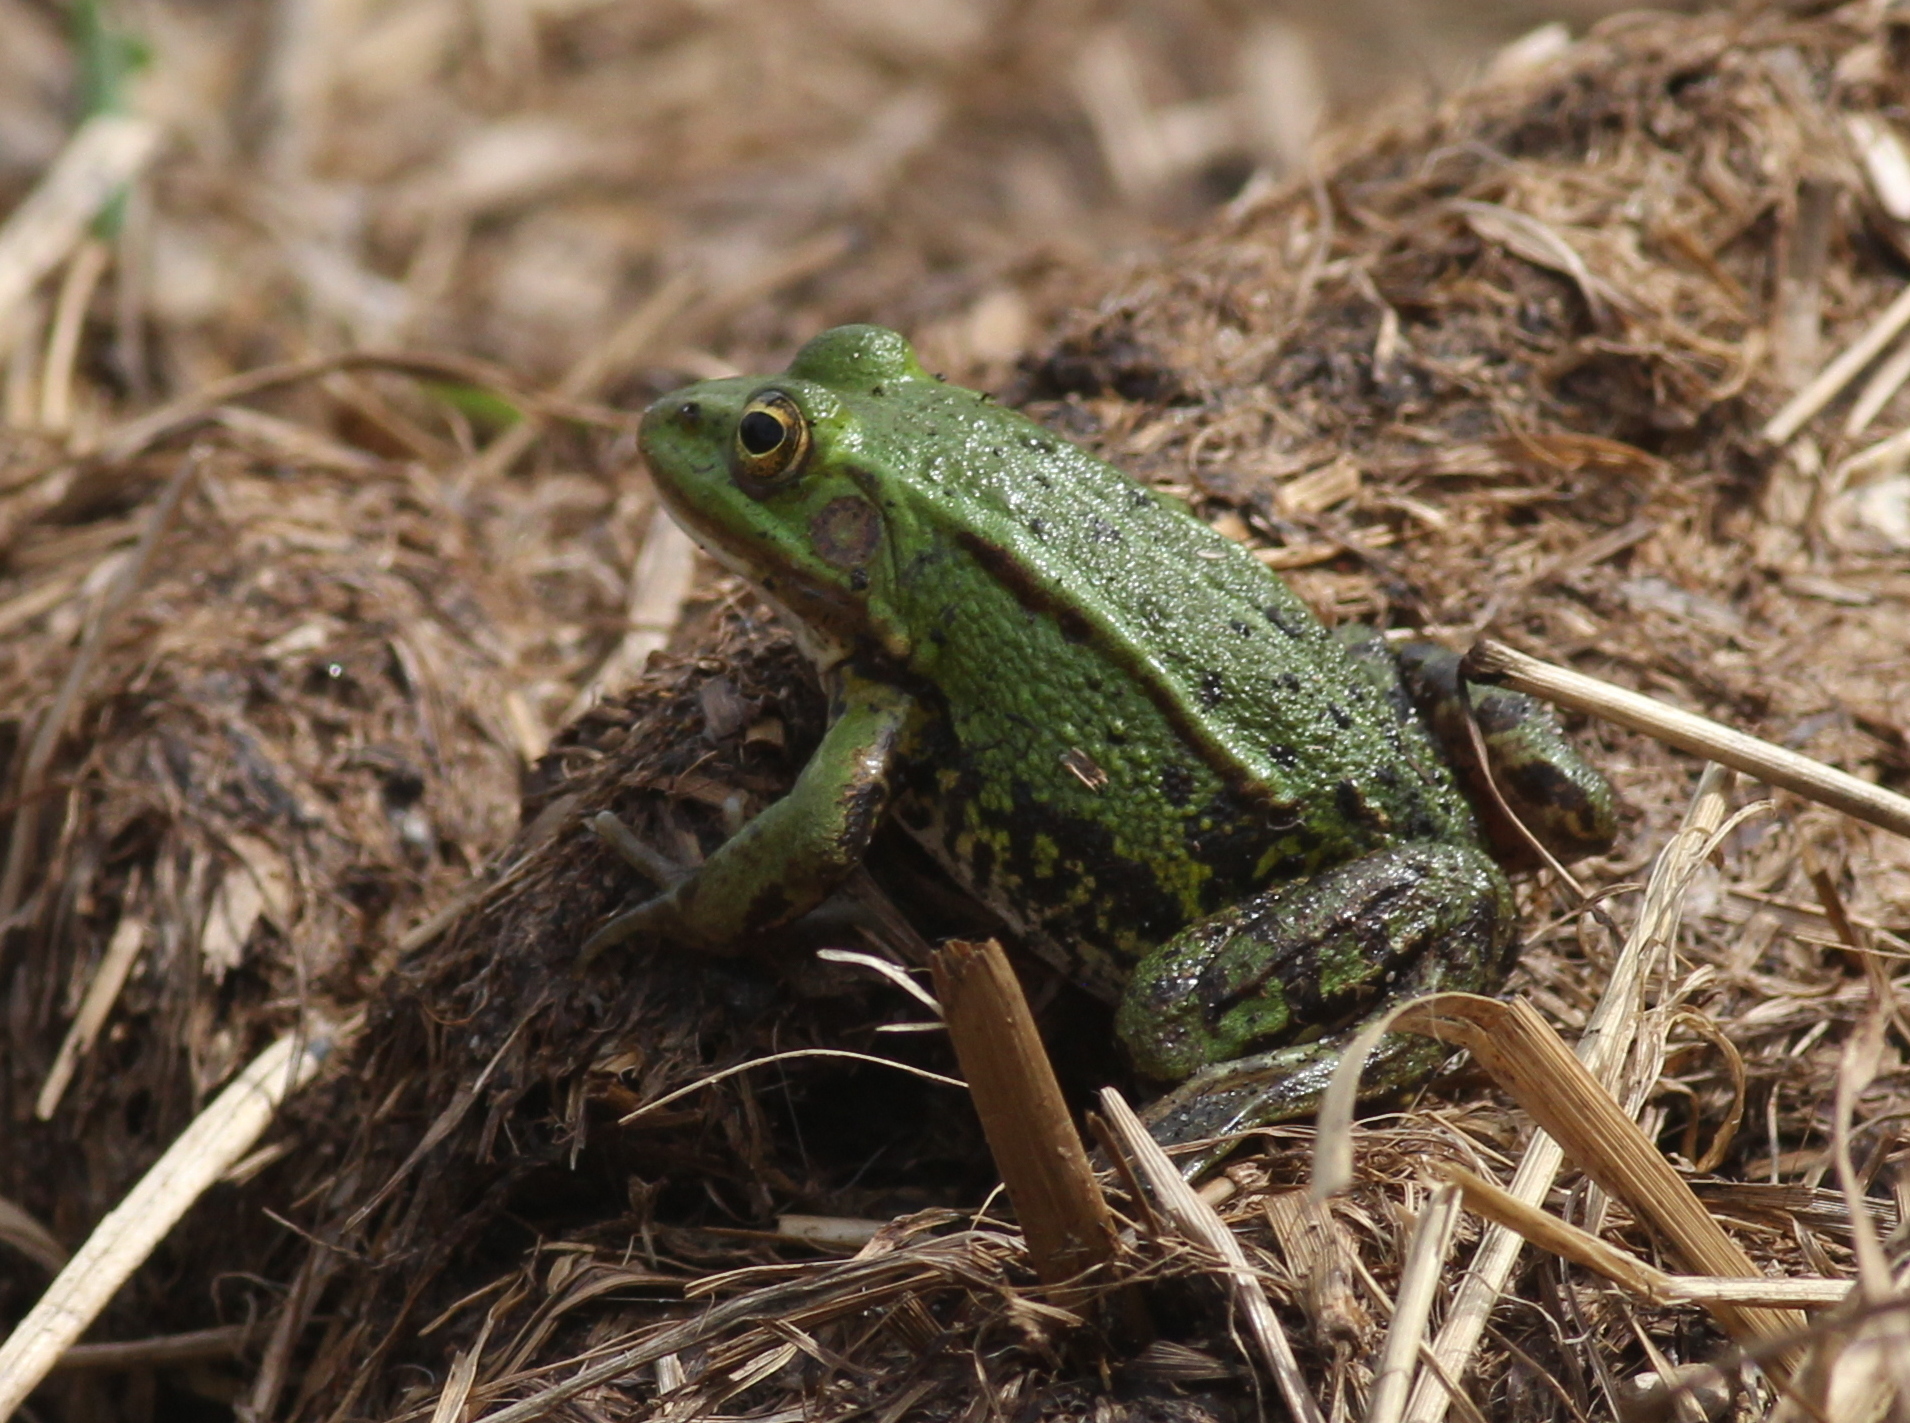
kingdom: Animalia
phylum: Chordata
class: Amphibia
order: Anura
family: Ranidae
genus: Pelophylax
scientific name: Pelophylax
